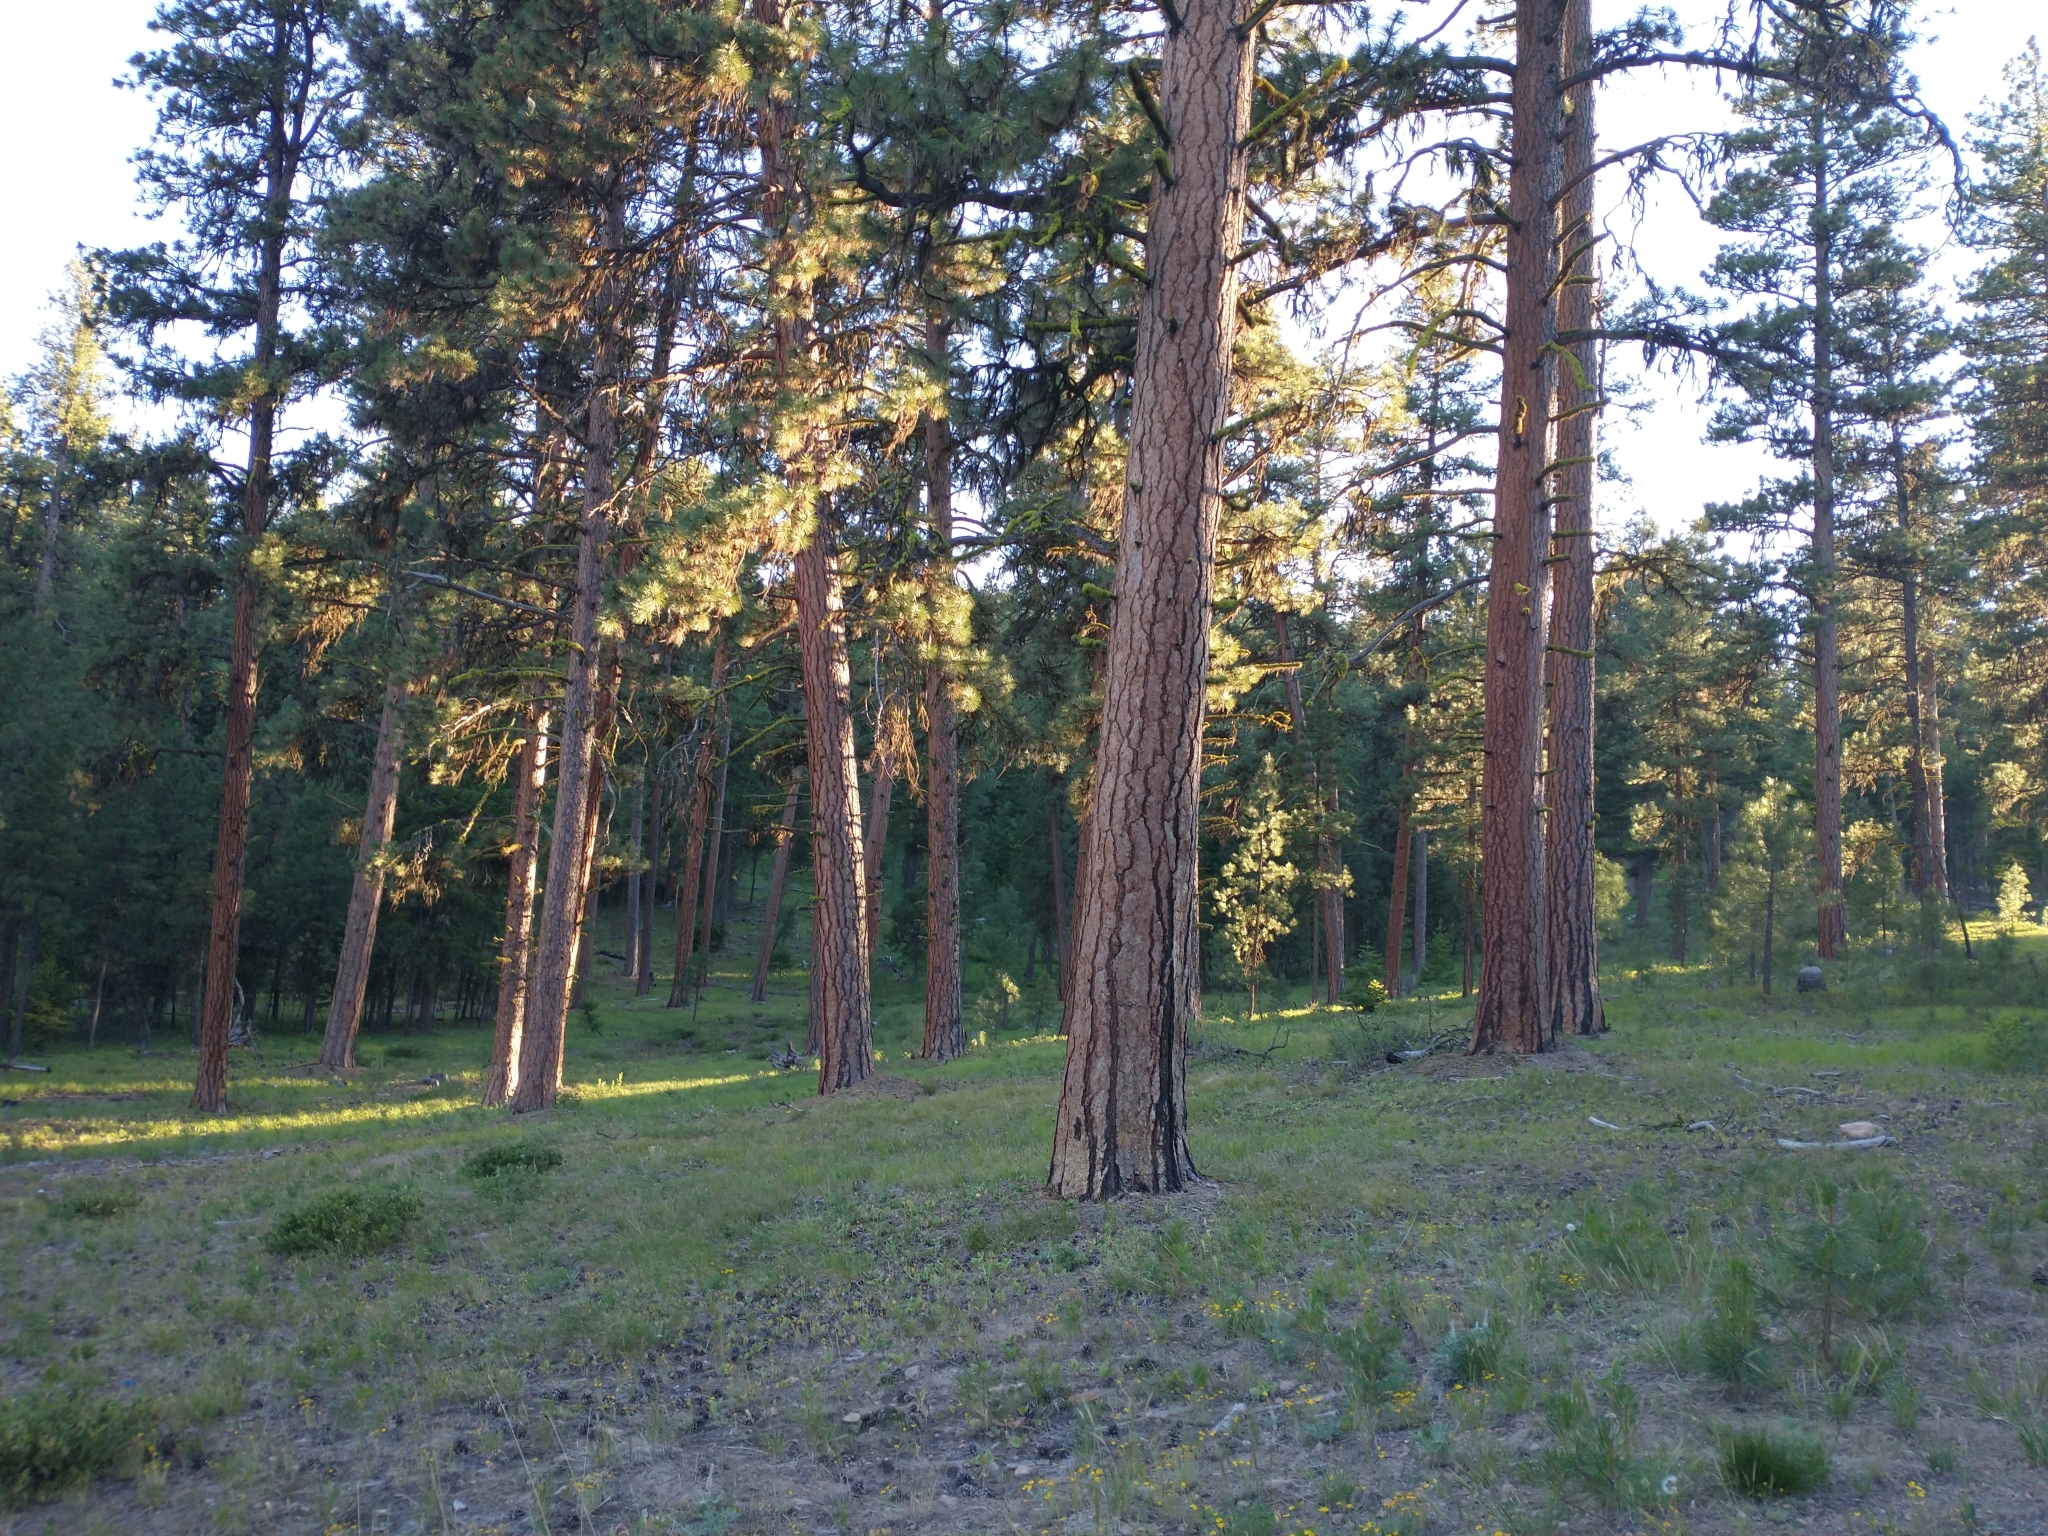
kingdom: Plantae
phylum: Tracheophyta
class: Pinopsida
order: Pinales
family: Pinaceae
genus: Pinus
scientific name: Pinus ponderosa
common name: Western yellow-pine
